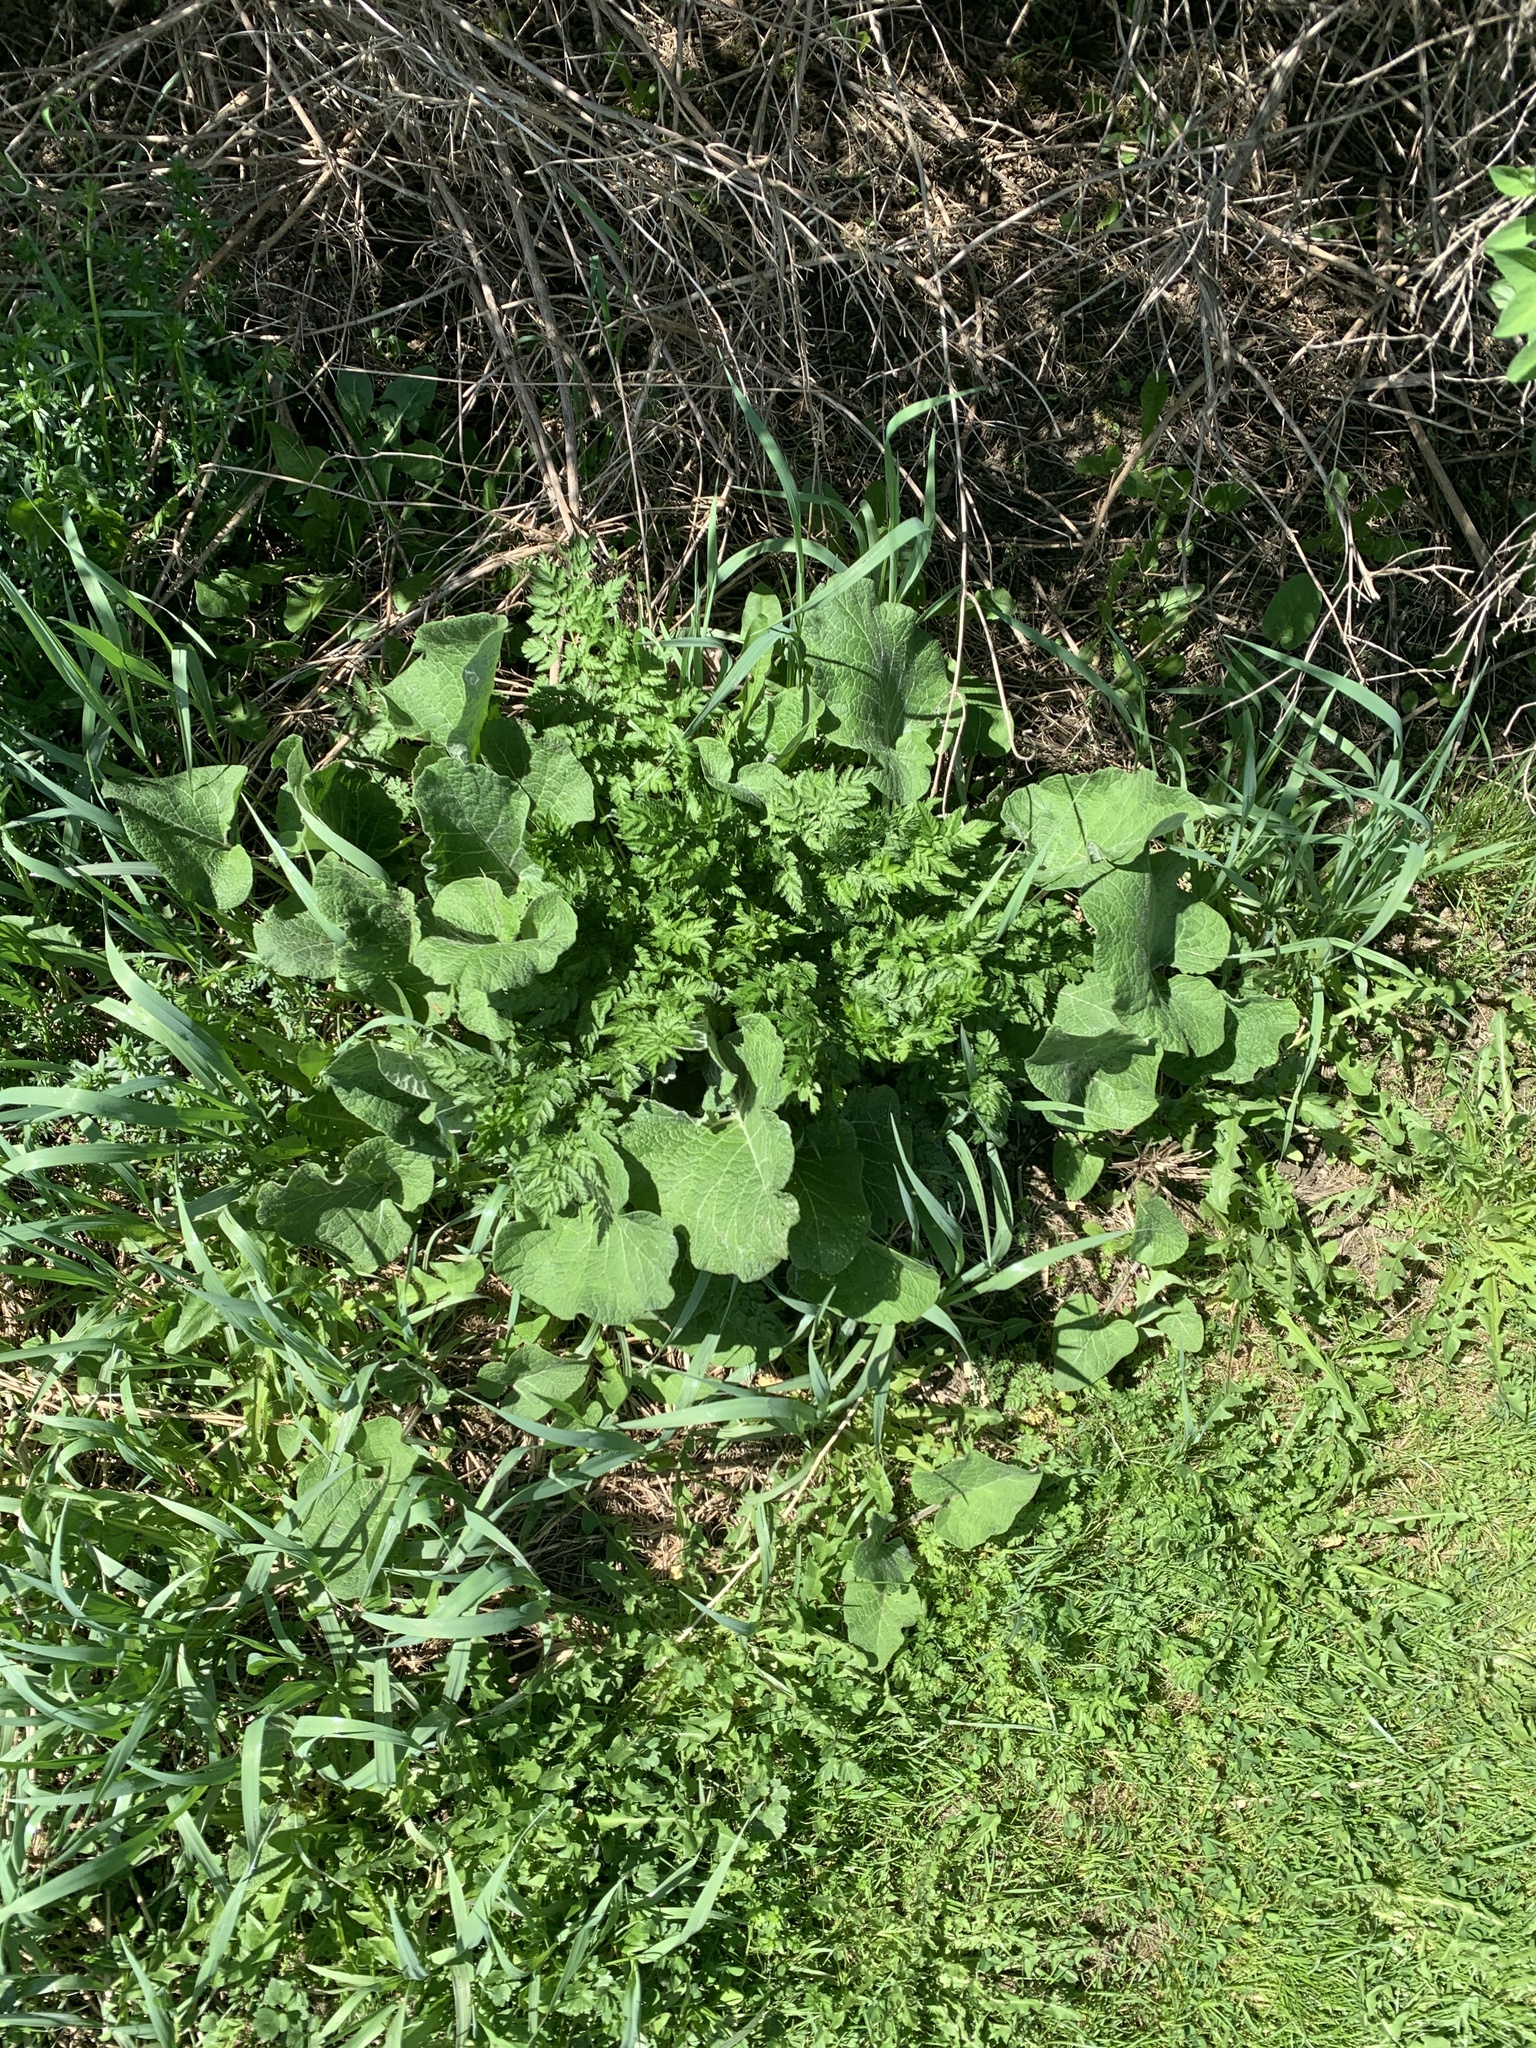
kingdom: Plantae
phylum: Tracheophyta
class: Magnoliopsida
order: Asterales
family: Asteraceae
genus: Arctium
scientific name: Arctium
